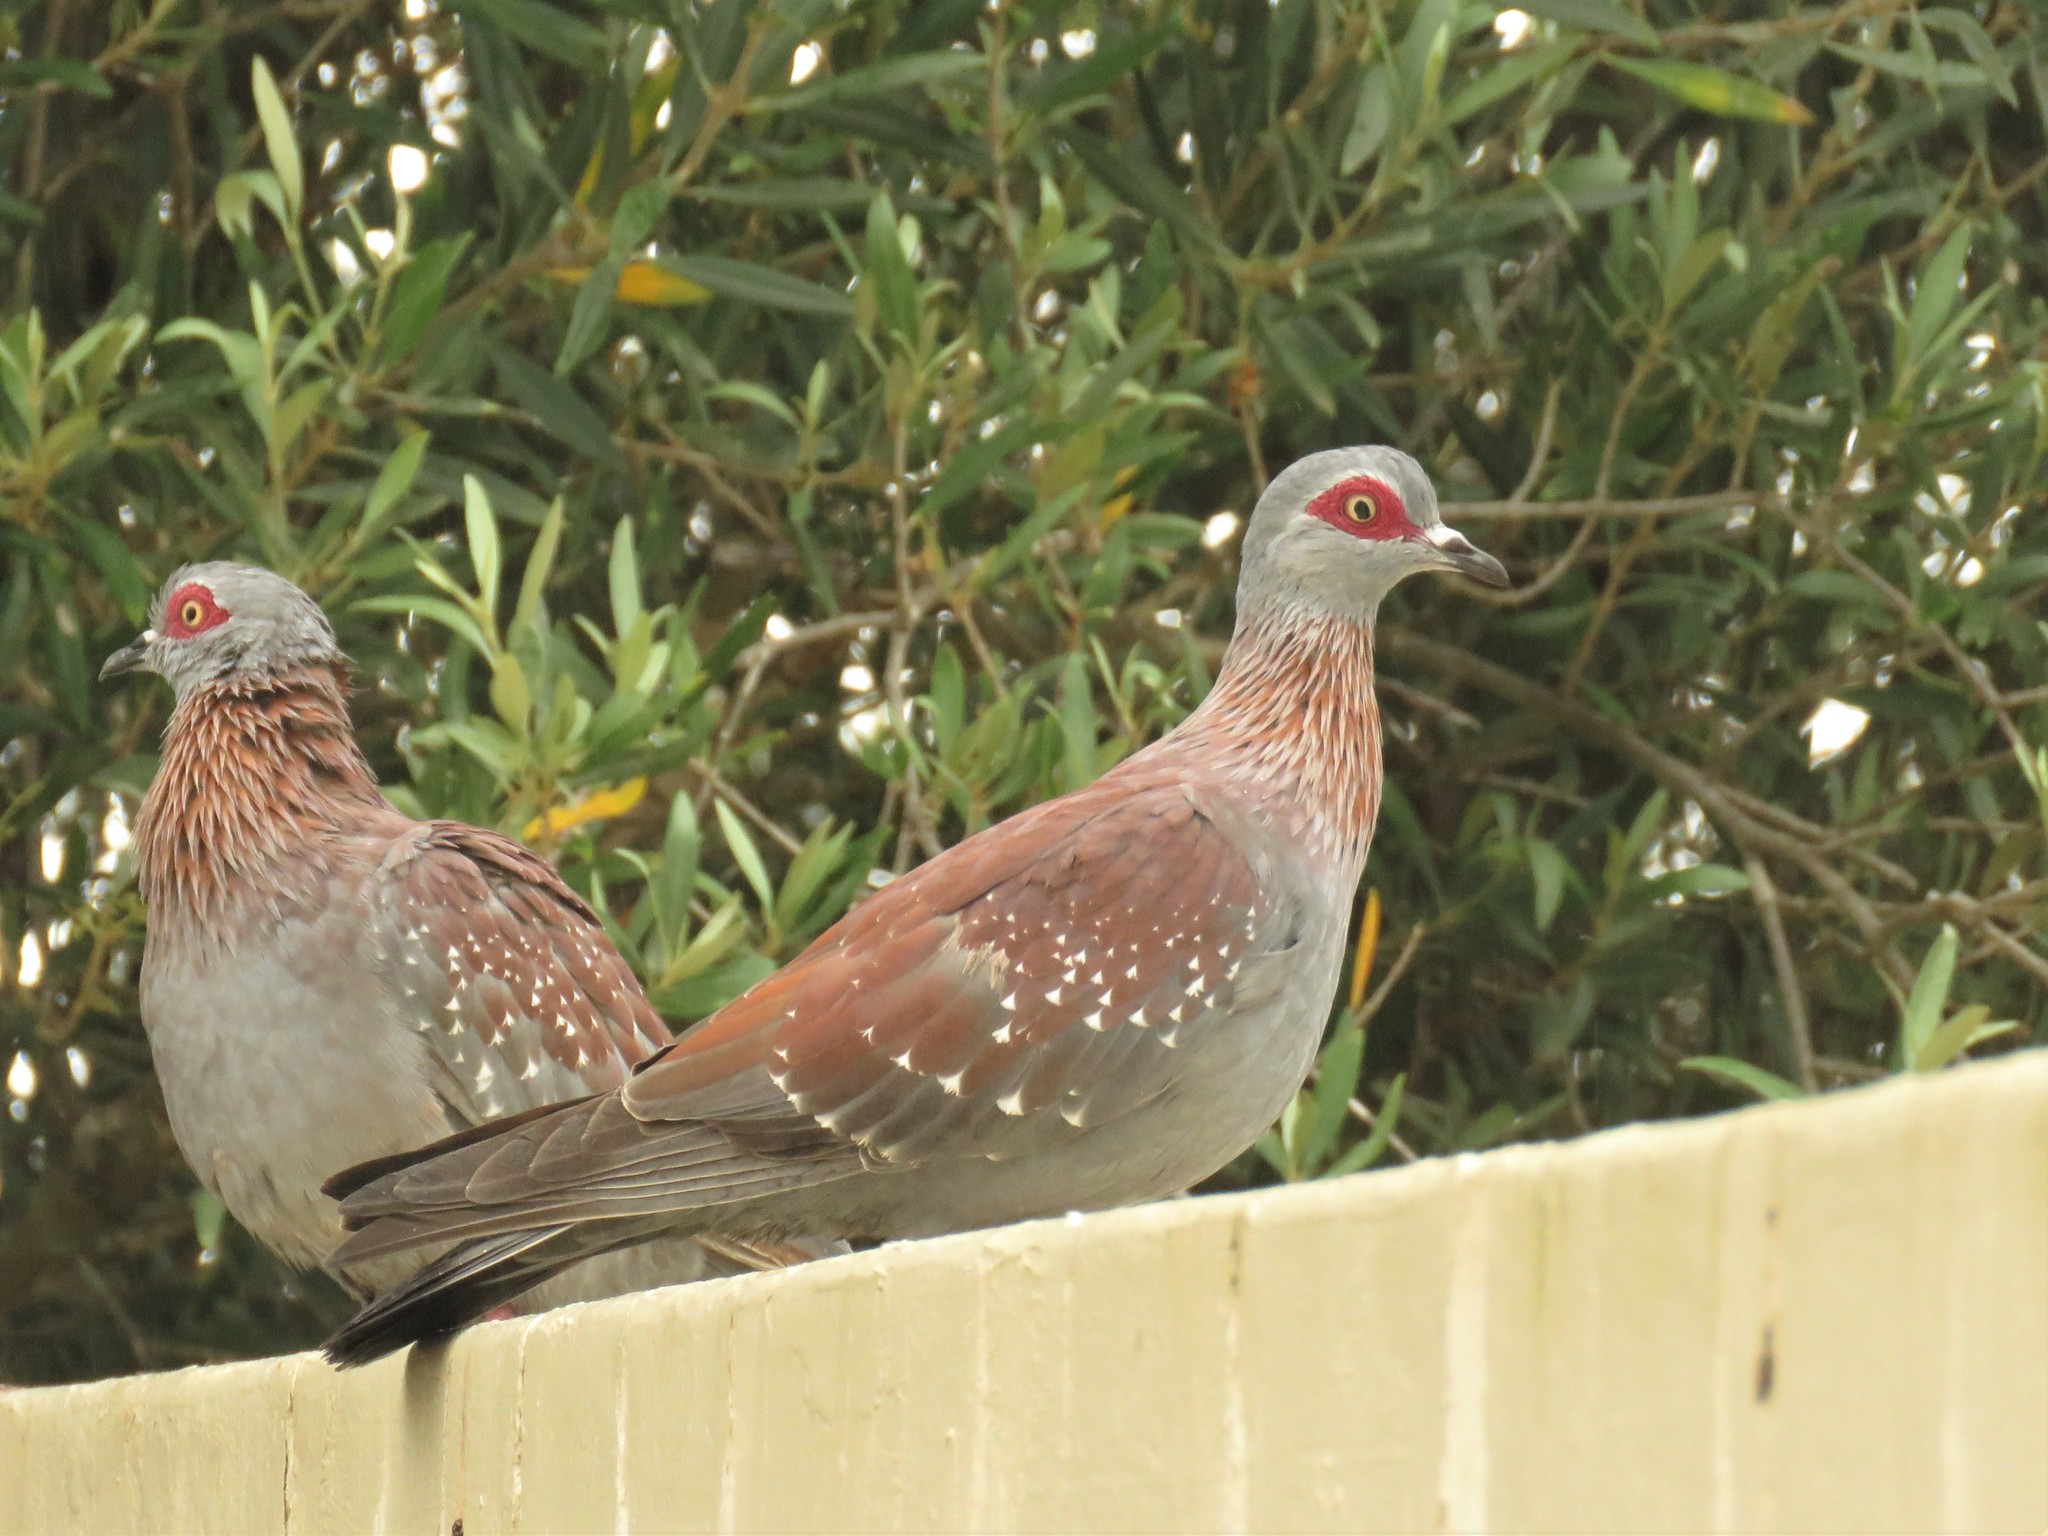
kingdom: Animalia
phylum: Chordata
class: Aves
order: Columbiformes
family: Columbidae
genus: Columba
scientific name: Columba guinea
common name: Speckled pigeon
